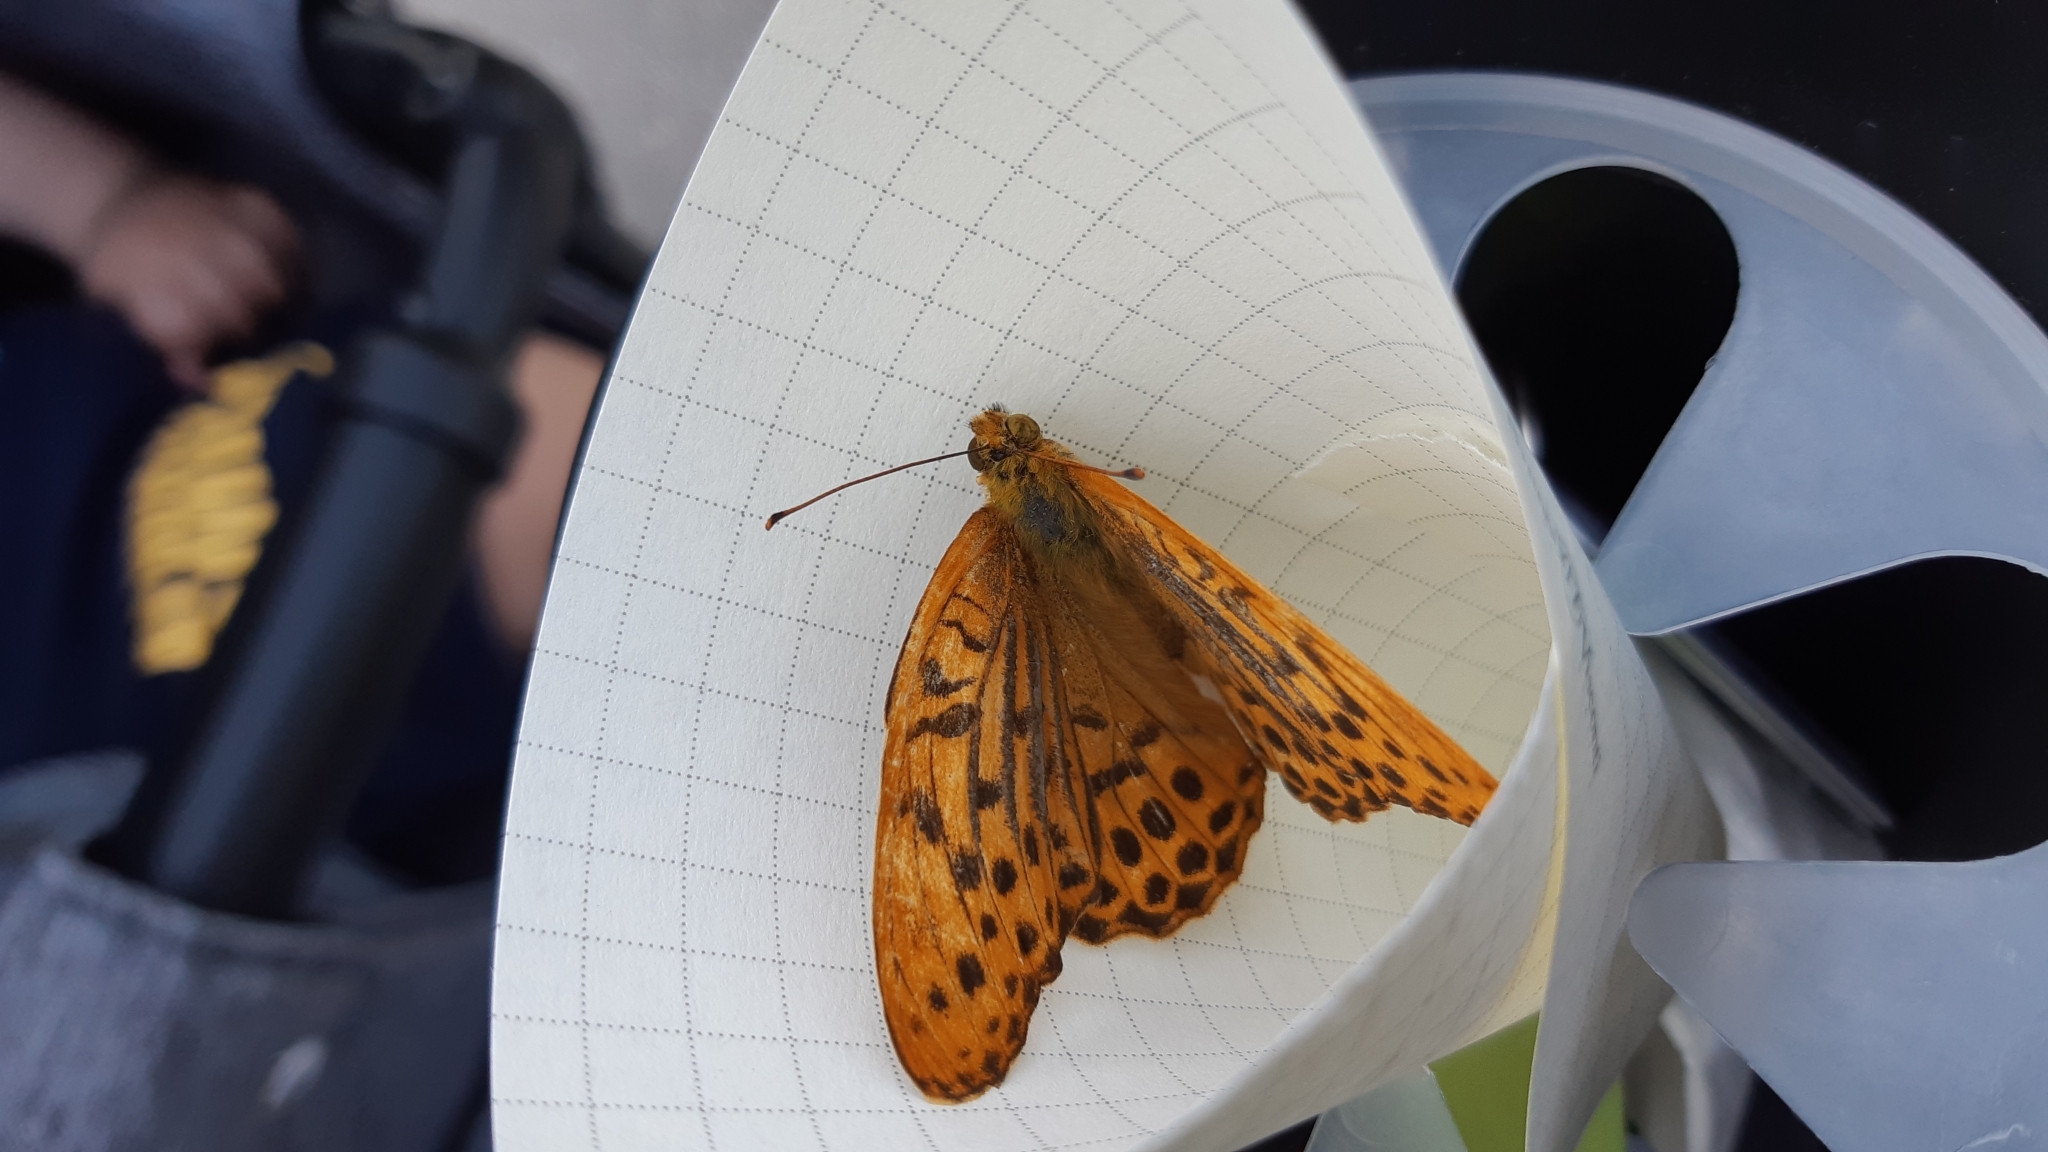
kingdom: Animalia
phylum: Arthropoda
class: Insecta
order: Lepidoptera
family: Nymphalidae
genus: Argynnis
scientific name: Argynnis paphia
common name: Silver-washed fritillary
